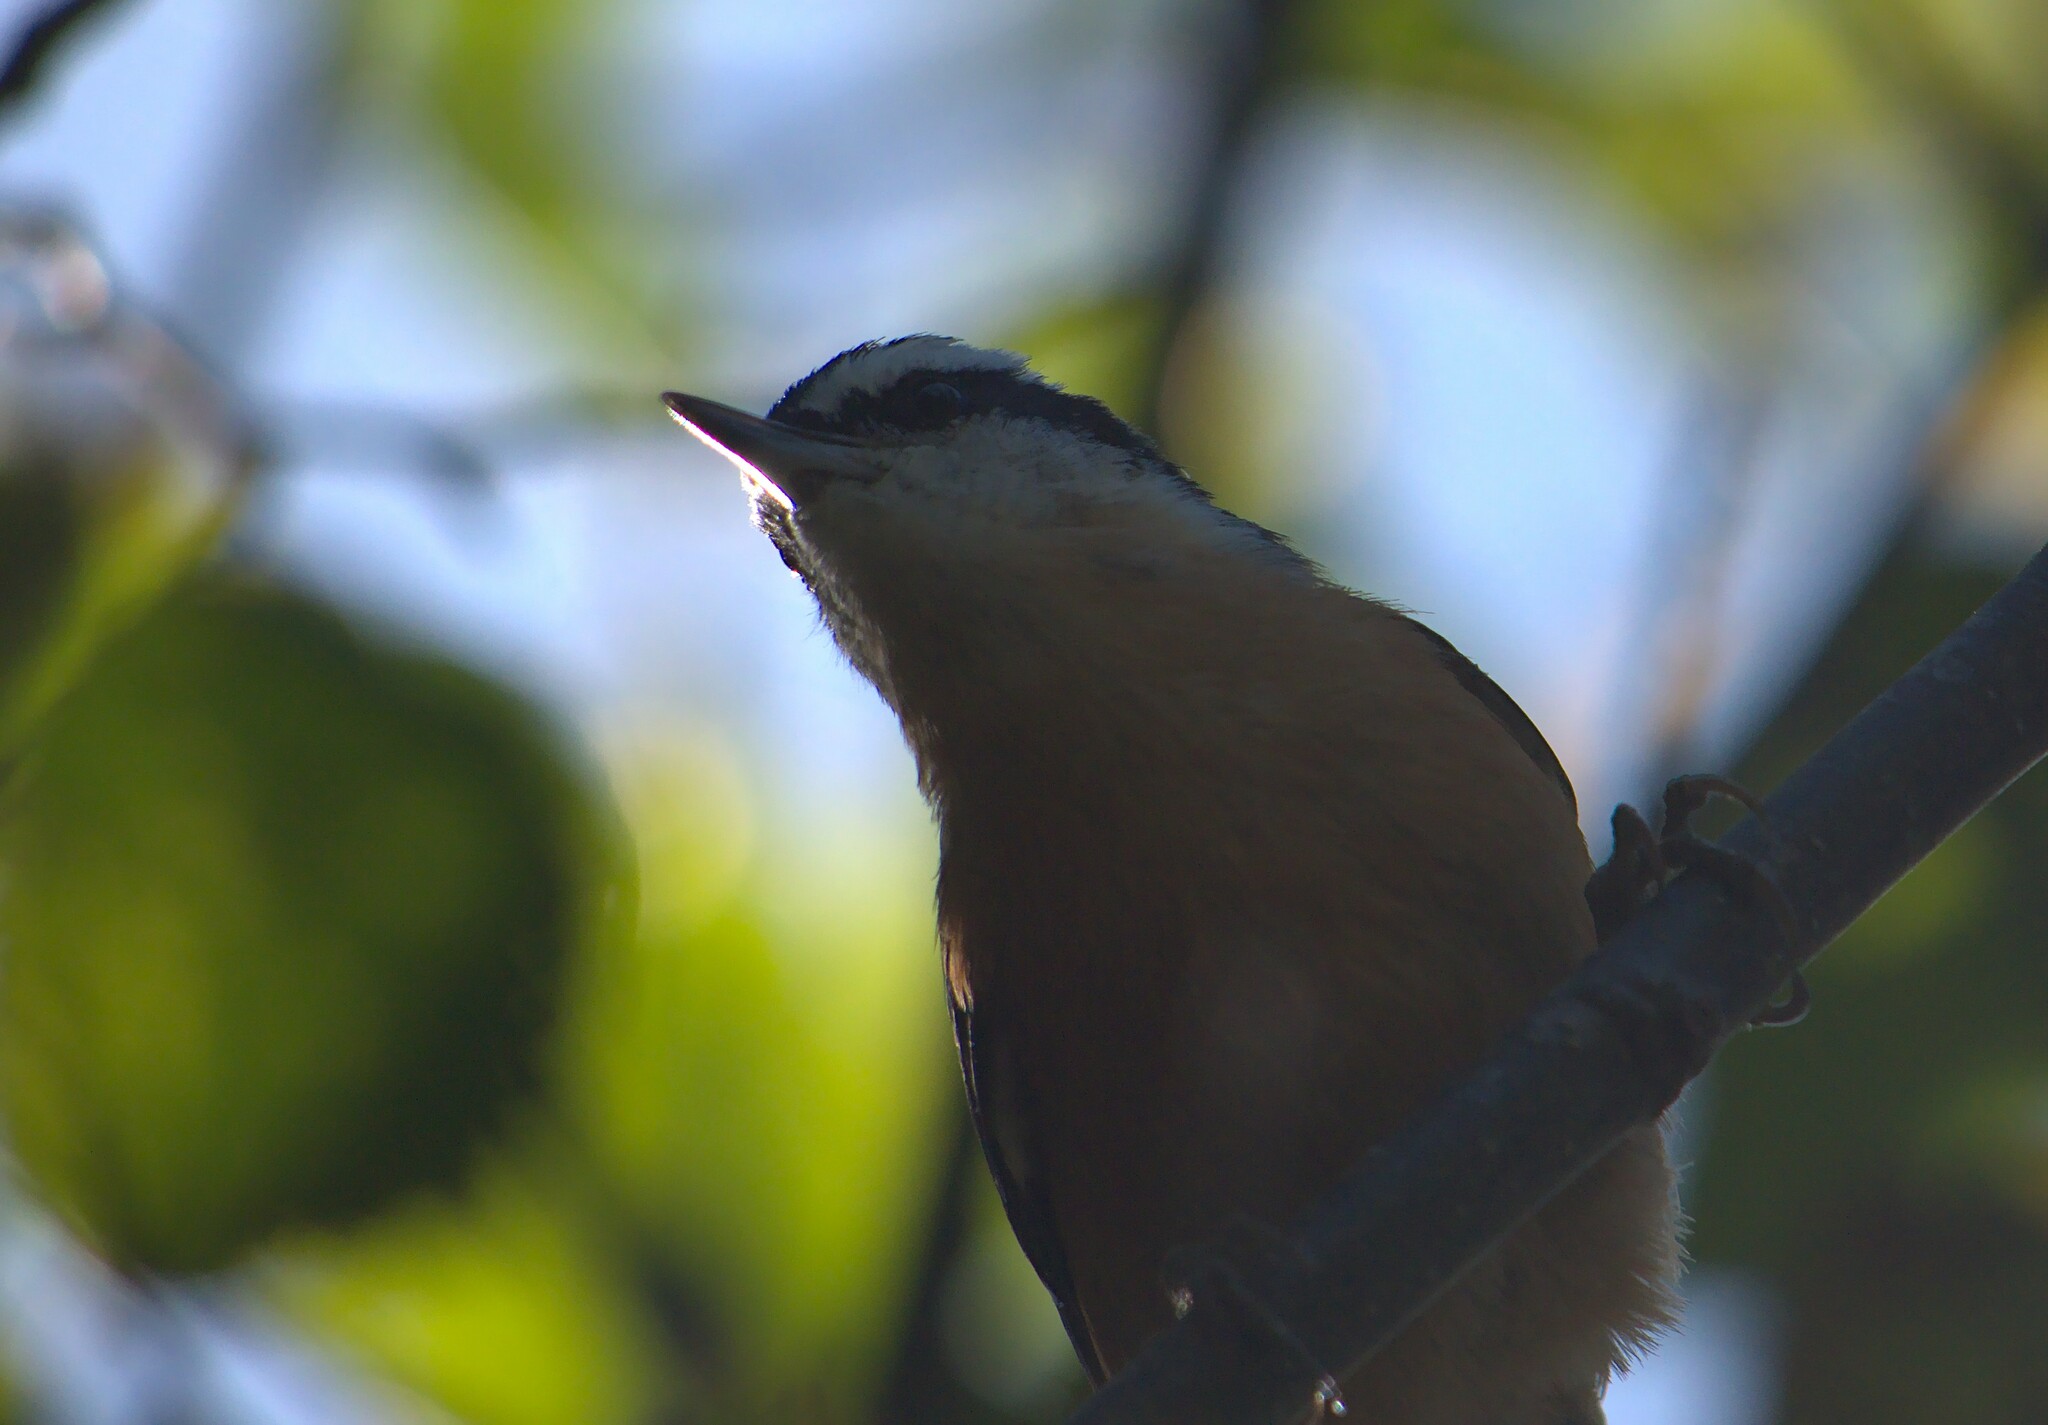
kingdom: Animalia
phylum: Chordata
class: Aves
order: Passeriformes
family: Sittidae
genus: Sitta
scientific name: Sitta canadensis
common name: Red-breasted nuthatch
